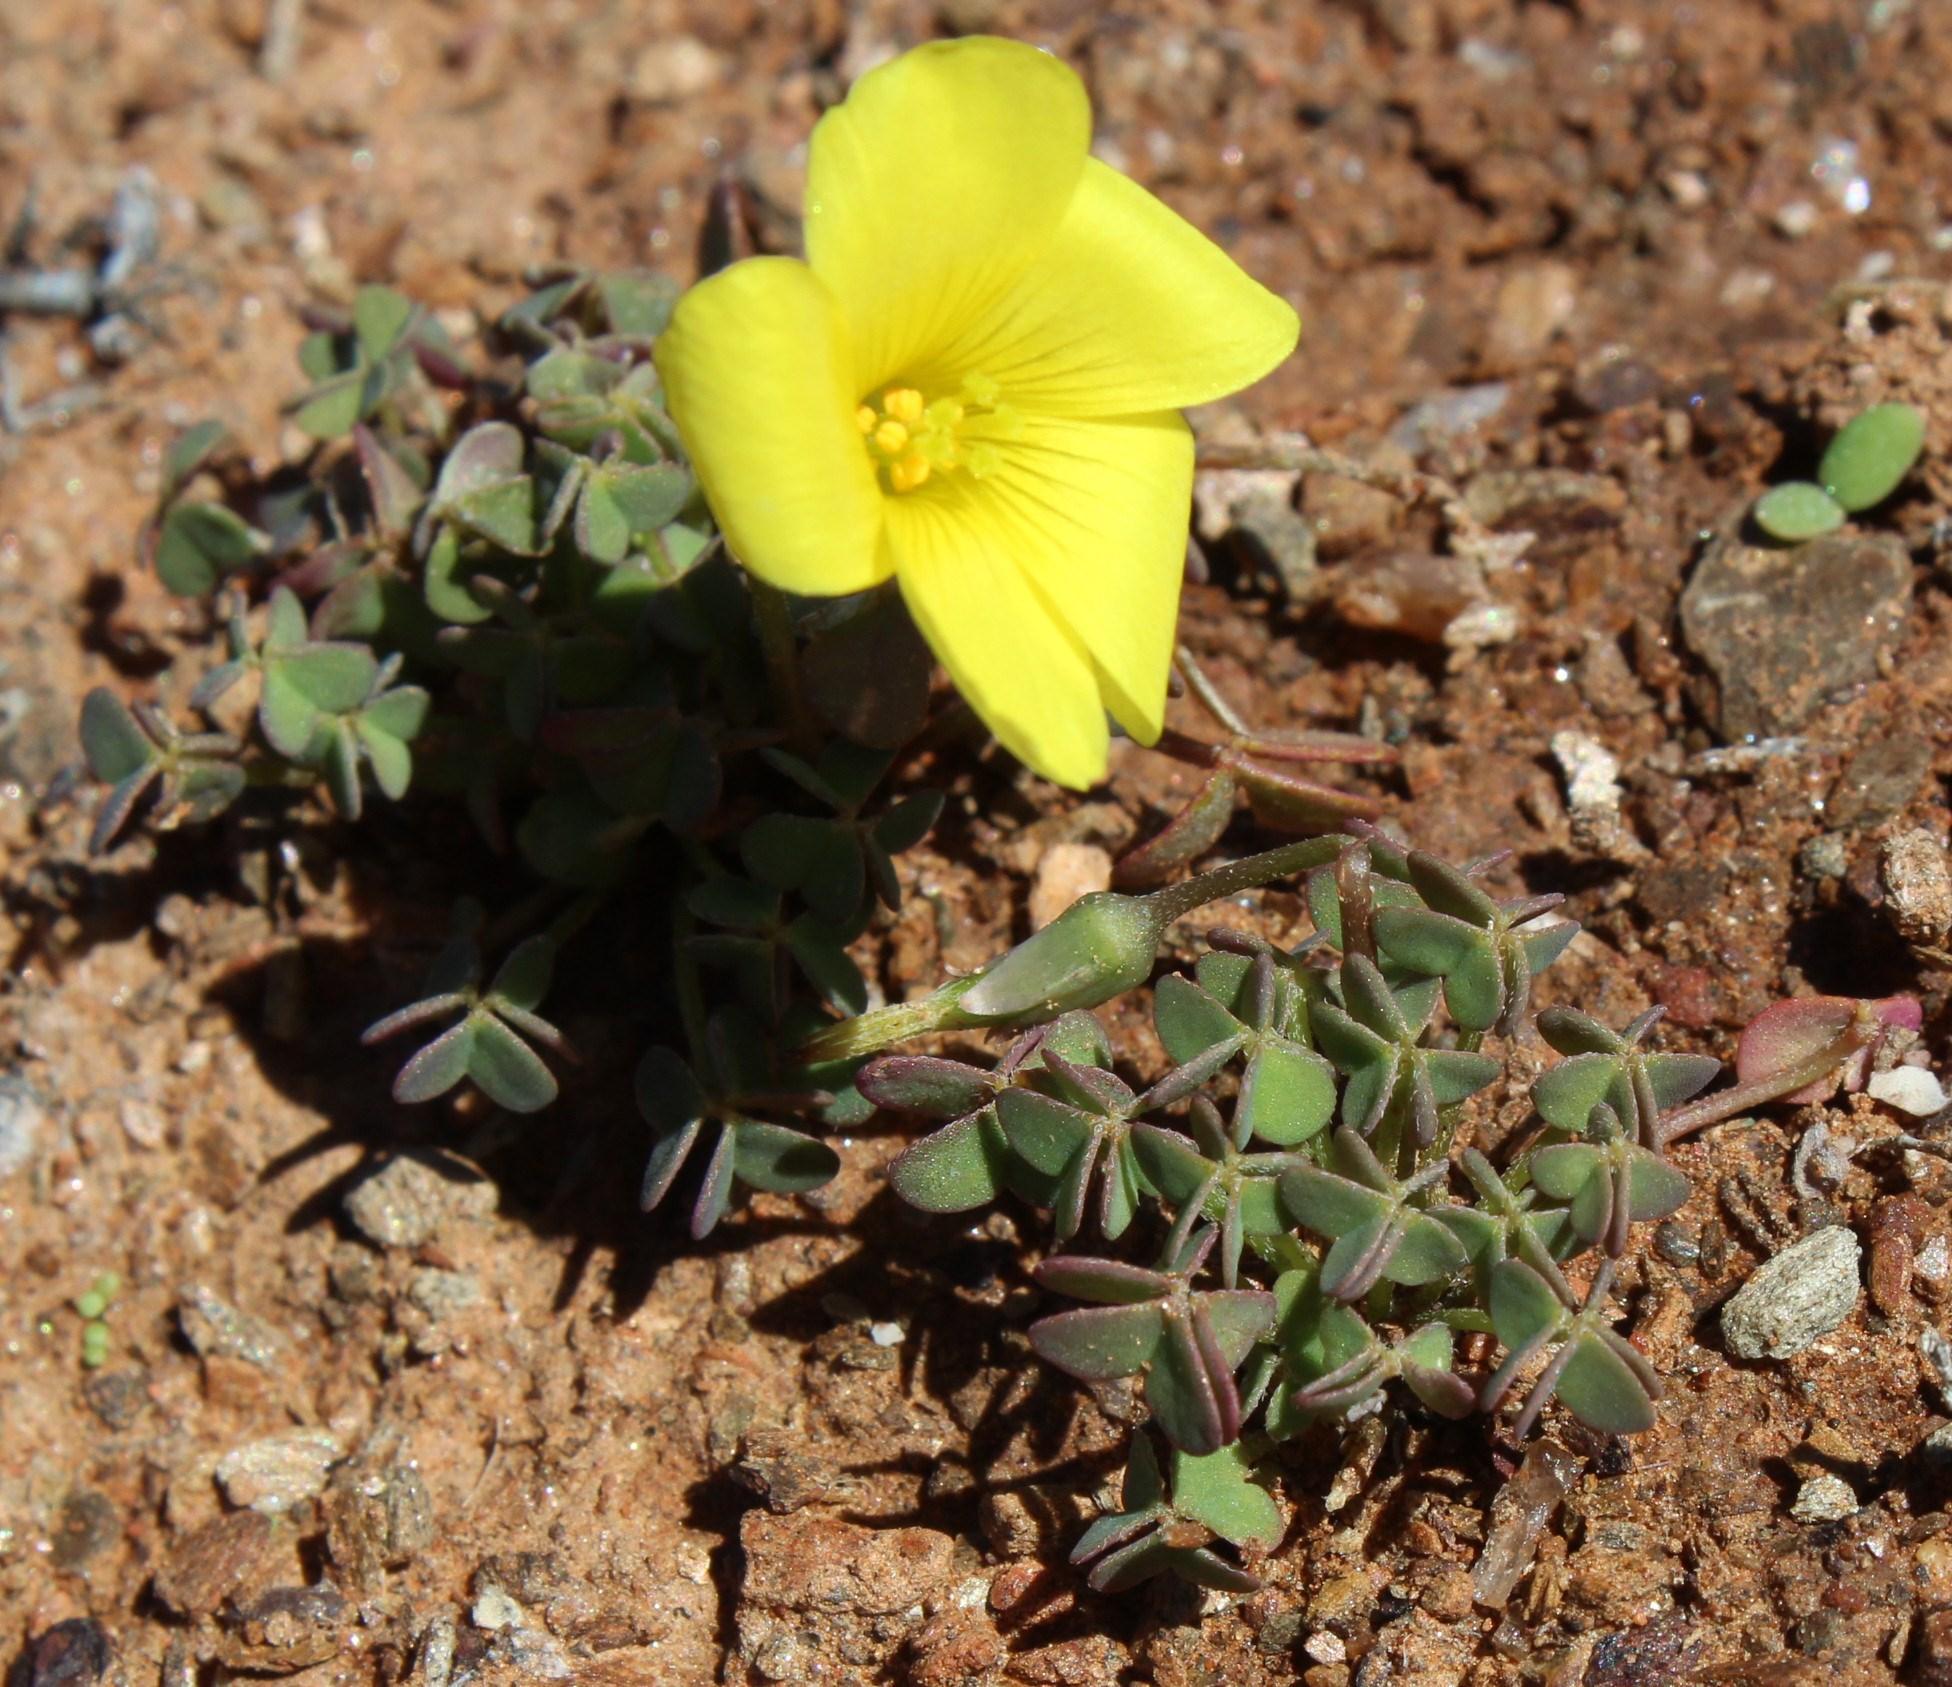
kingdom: Plantae
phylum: Tracheophyta
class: Magnoliopsida
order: Oxalidales
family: Oxalidaceae
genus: Oxalis
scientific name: Oxalis copiosa
